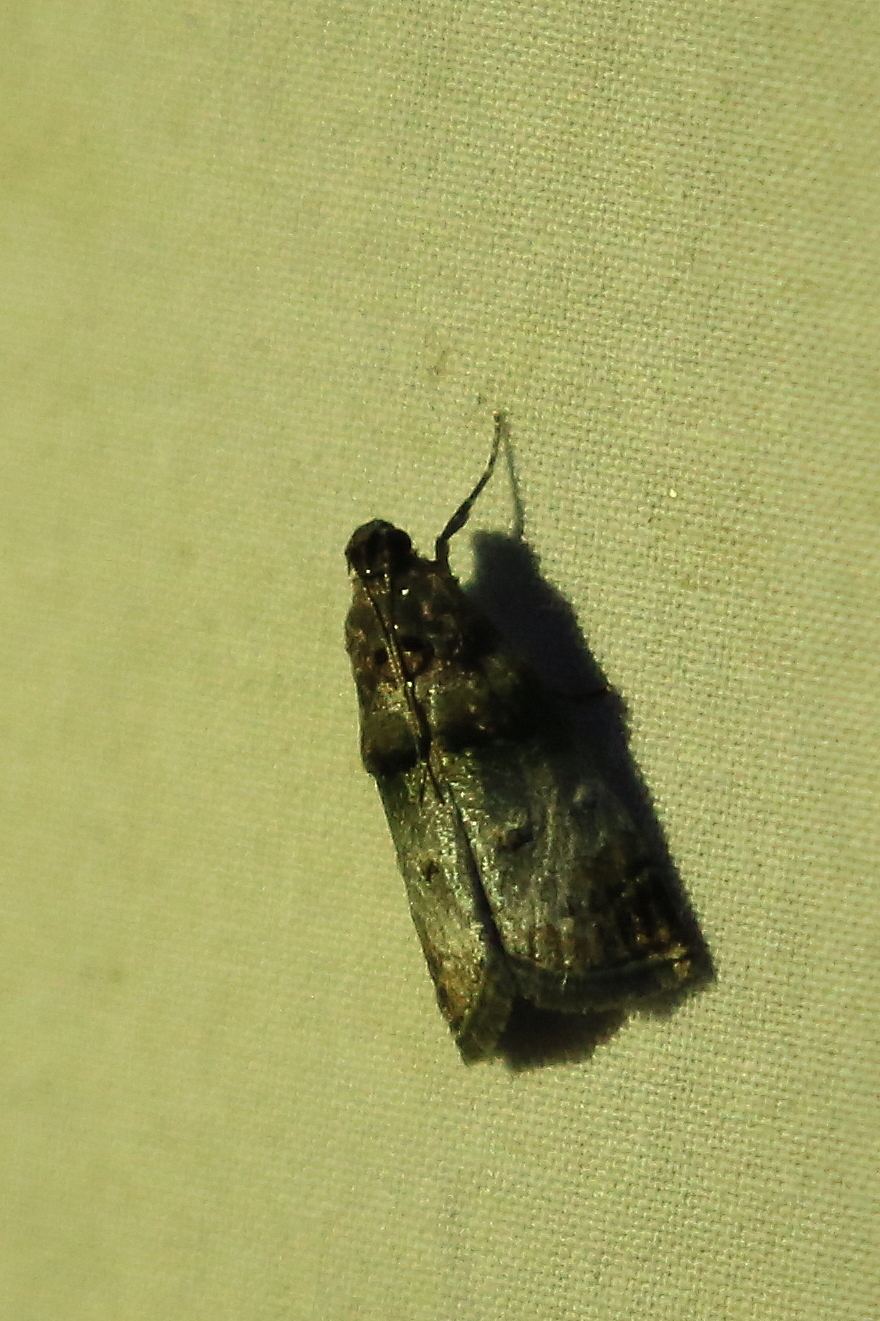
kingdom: Animalia
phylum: Arthropoda
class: Insecta
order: Lepidoptera
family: Pyralidae
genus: Oneida
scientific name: Oneida lunulalis
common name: Orange-tufted oneida moth
